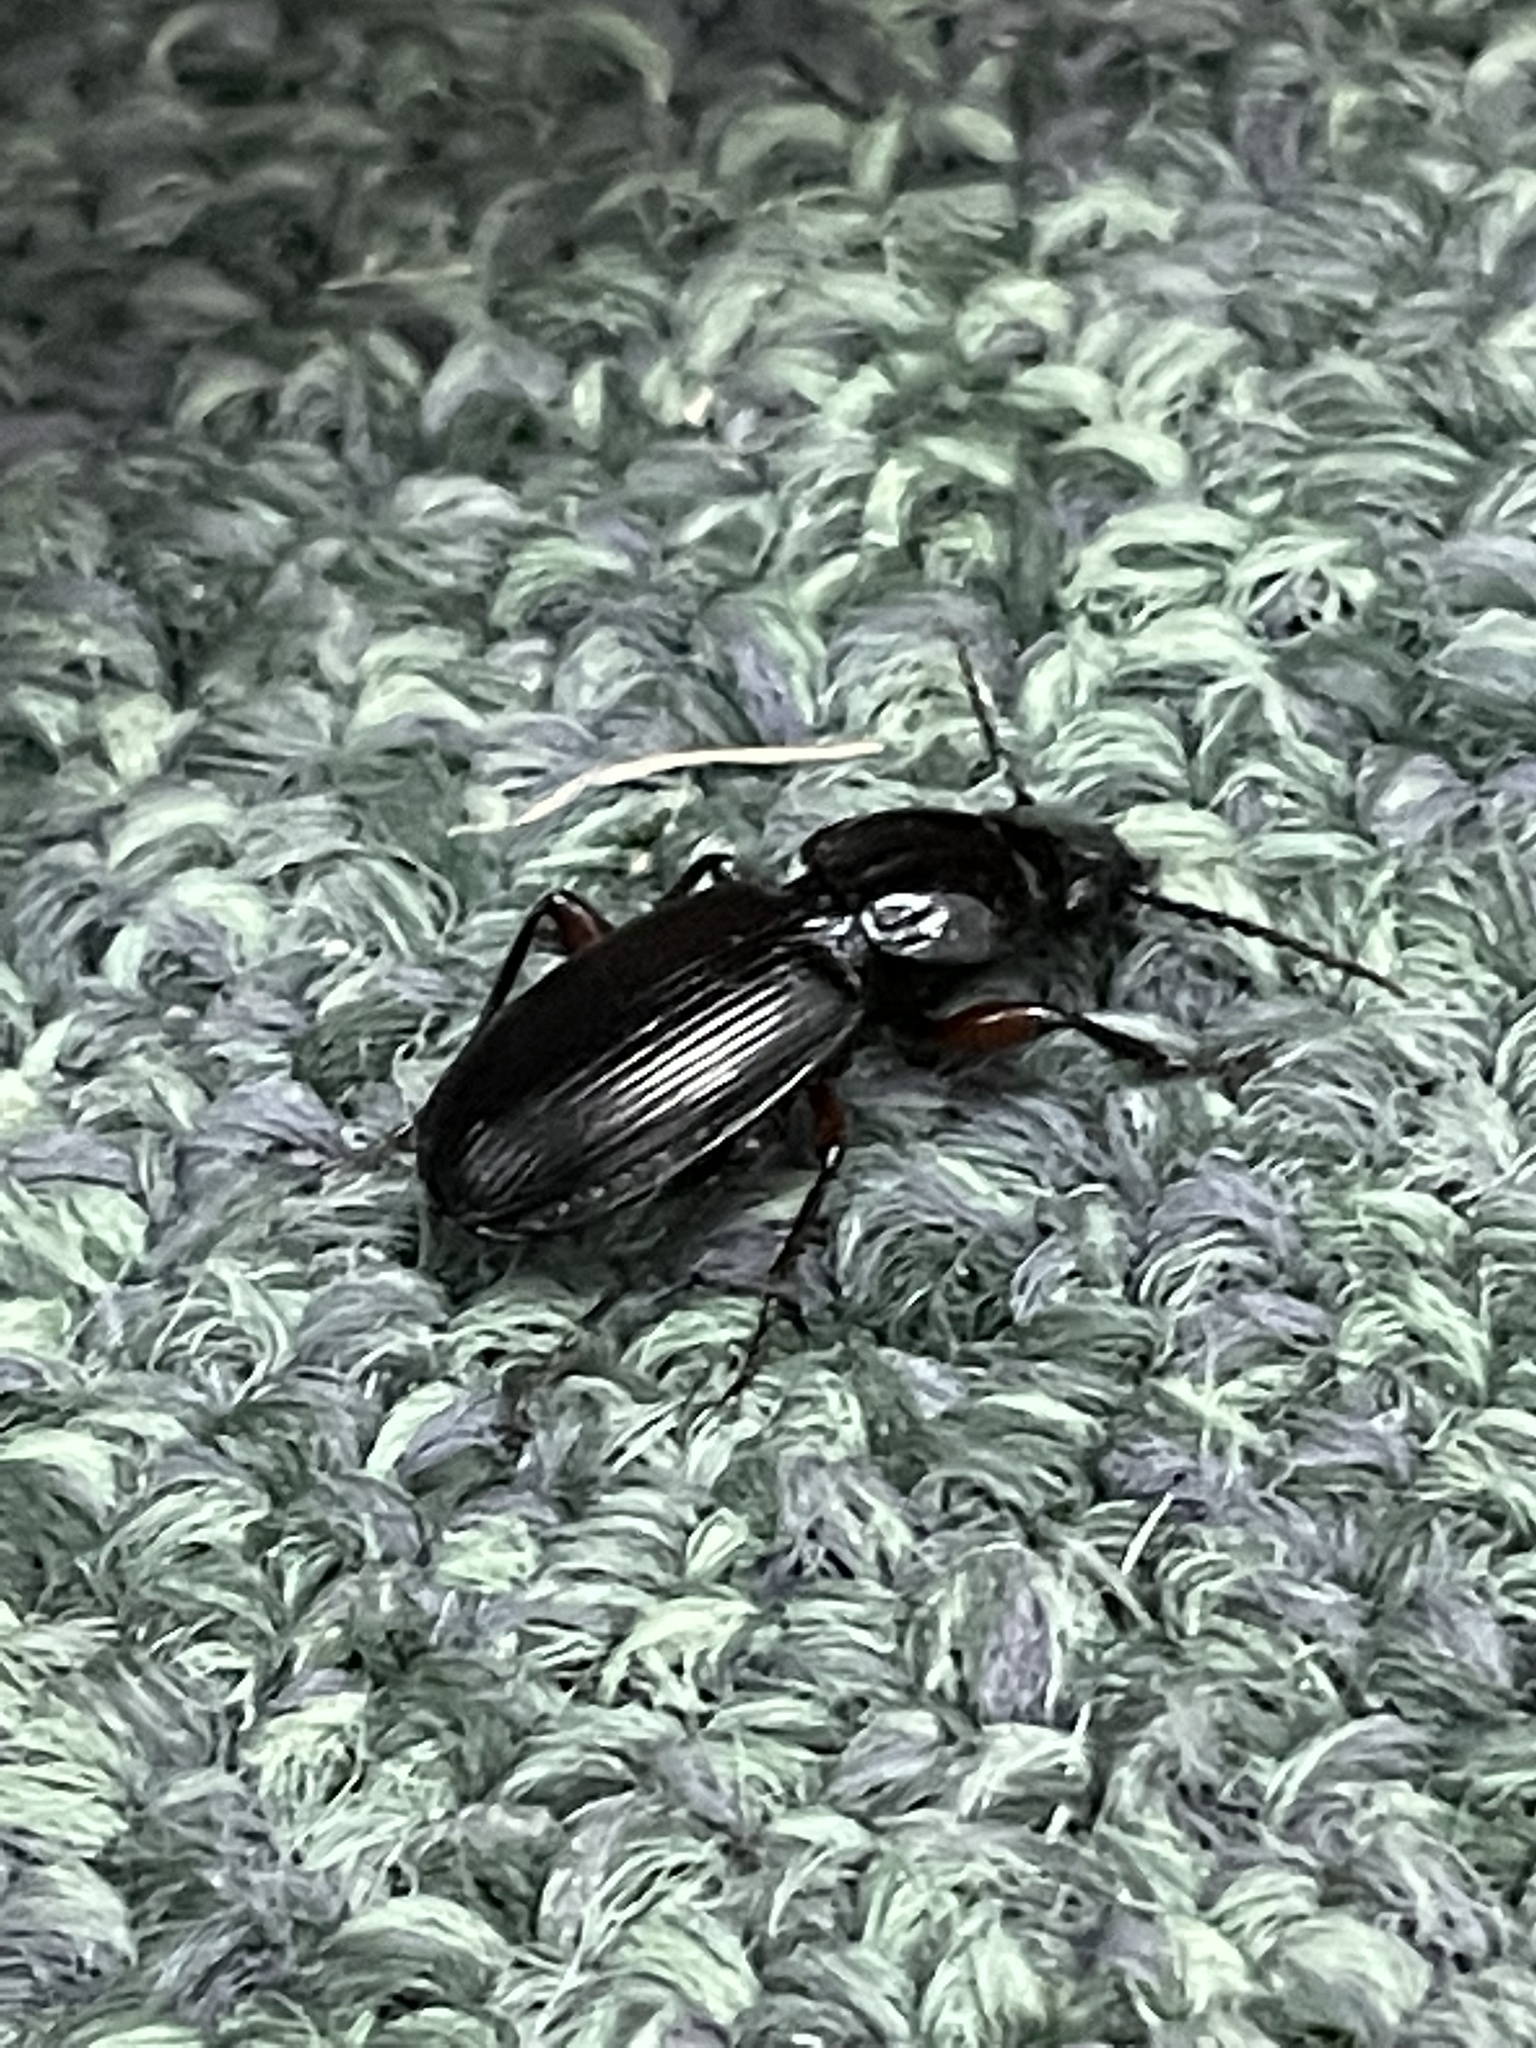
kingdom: Animalia
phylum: Arthropoda
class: Insecta
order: Coleoptera
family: Carabidae
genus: Pterostichus
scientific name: Pterostichus madidus
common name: Black clock
